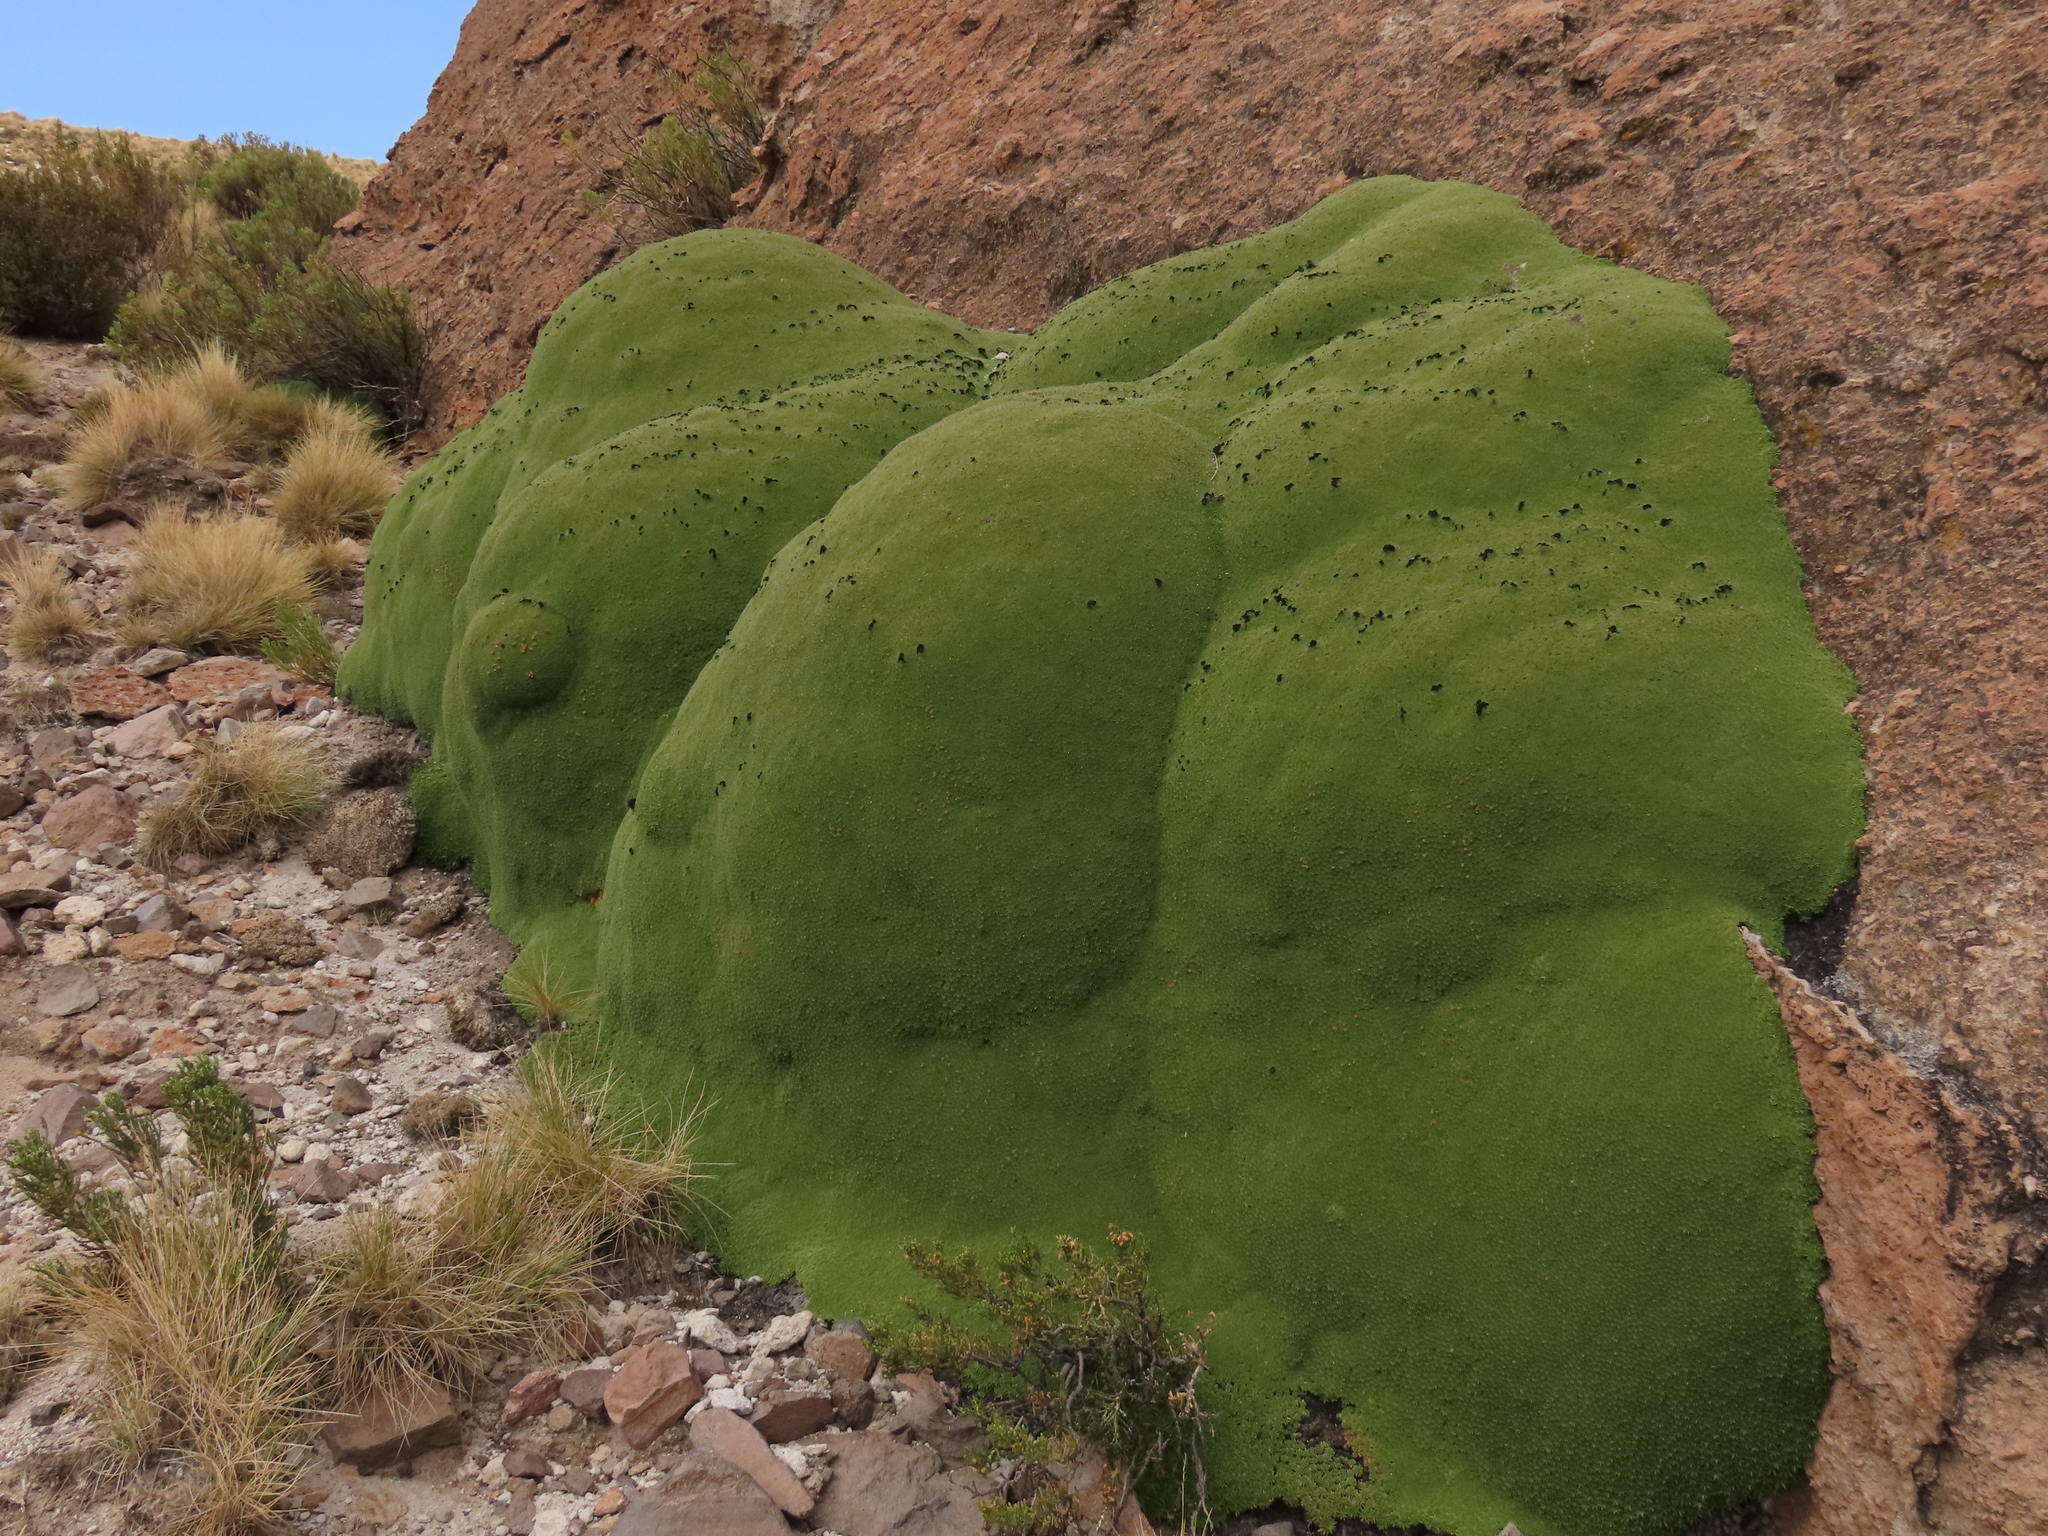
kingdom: Plantae
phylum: Tracheophyta
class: Magnoliopsida
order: Apiales
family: Apiaceae
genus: Azorella
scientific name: Azorella compacta
